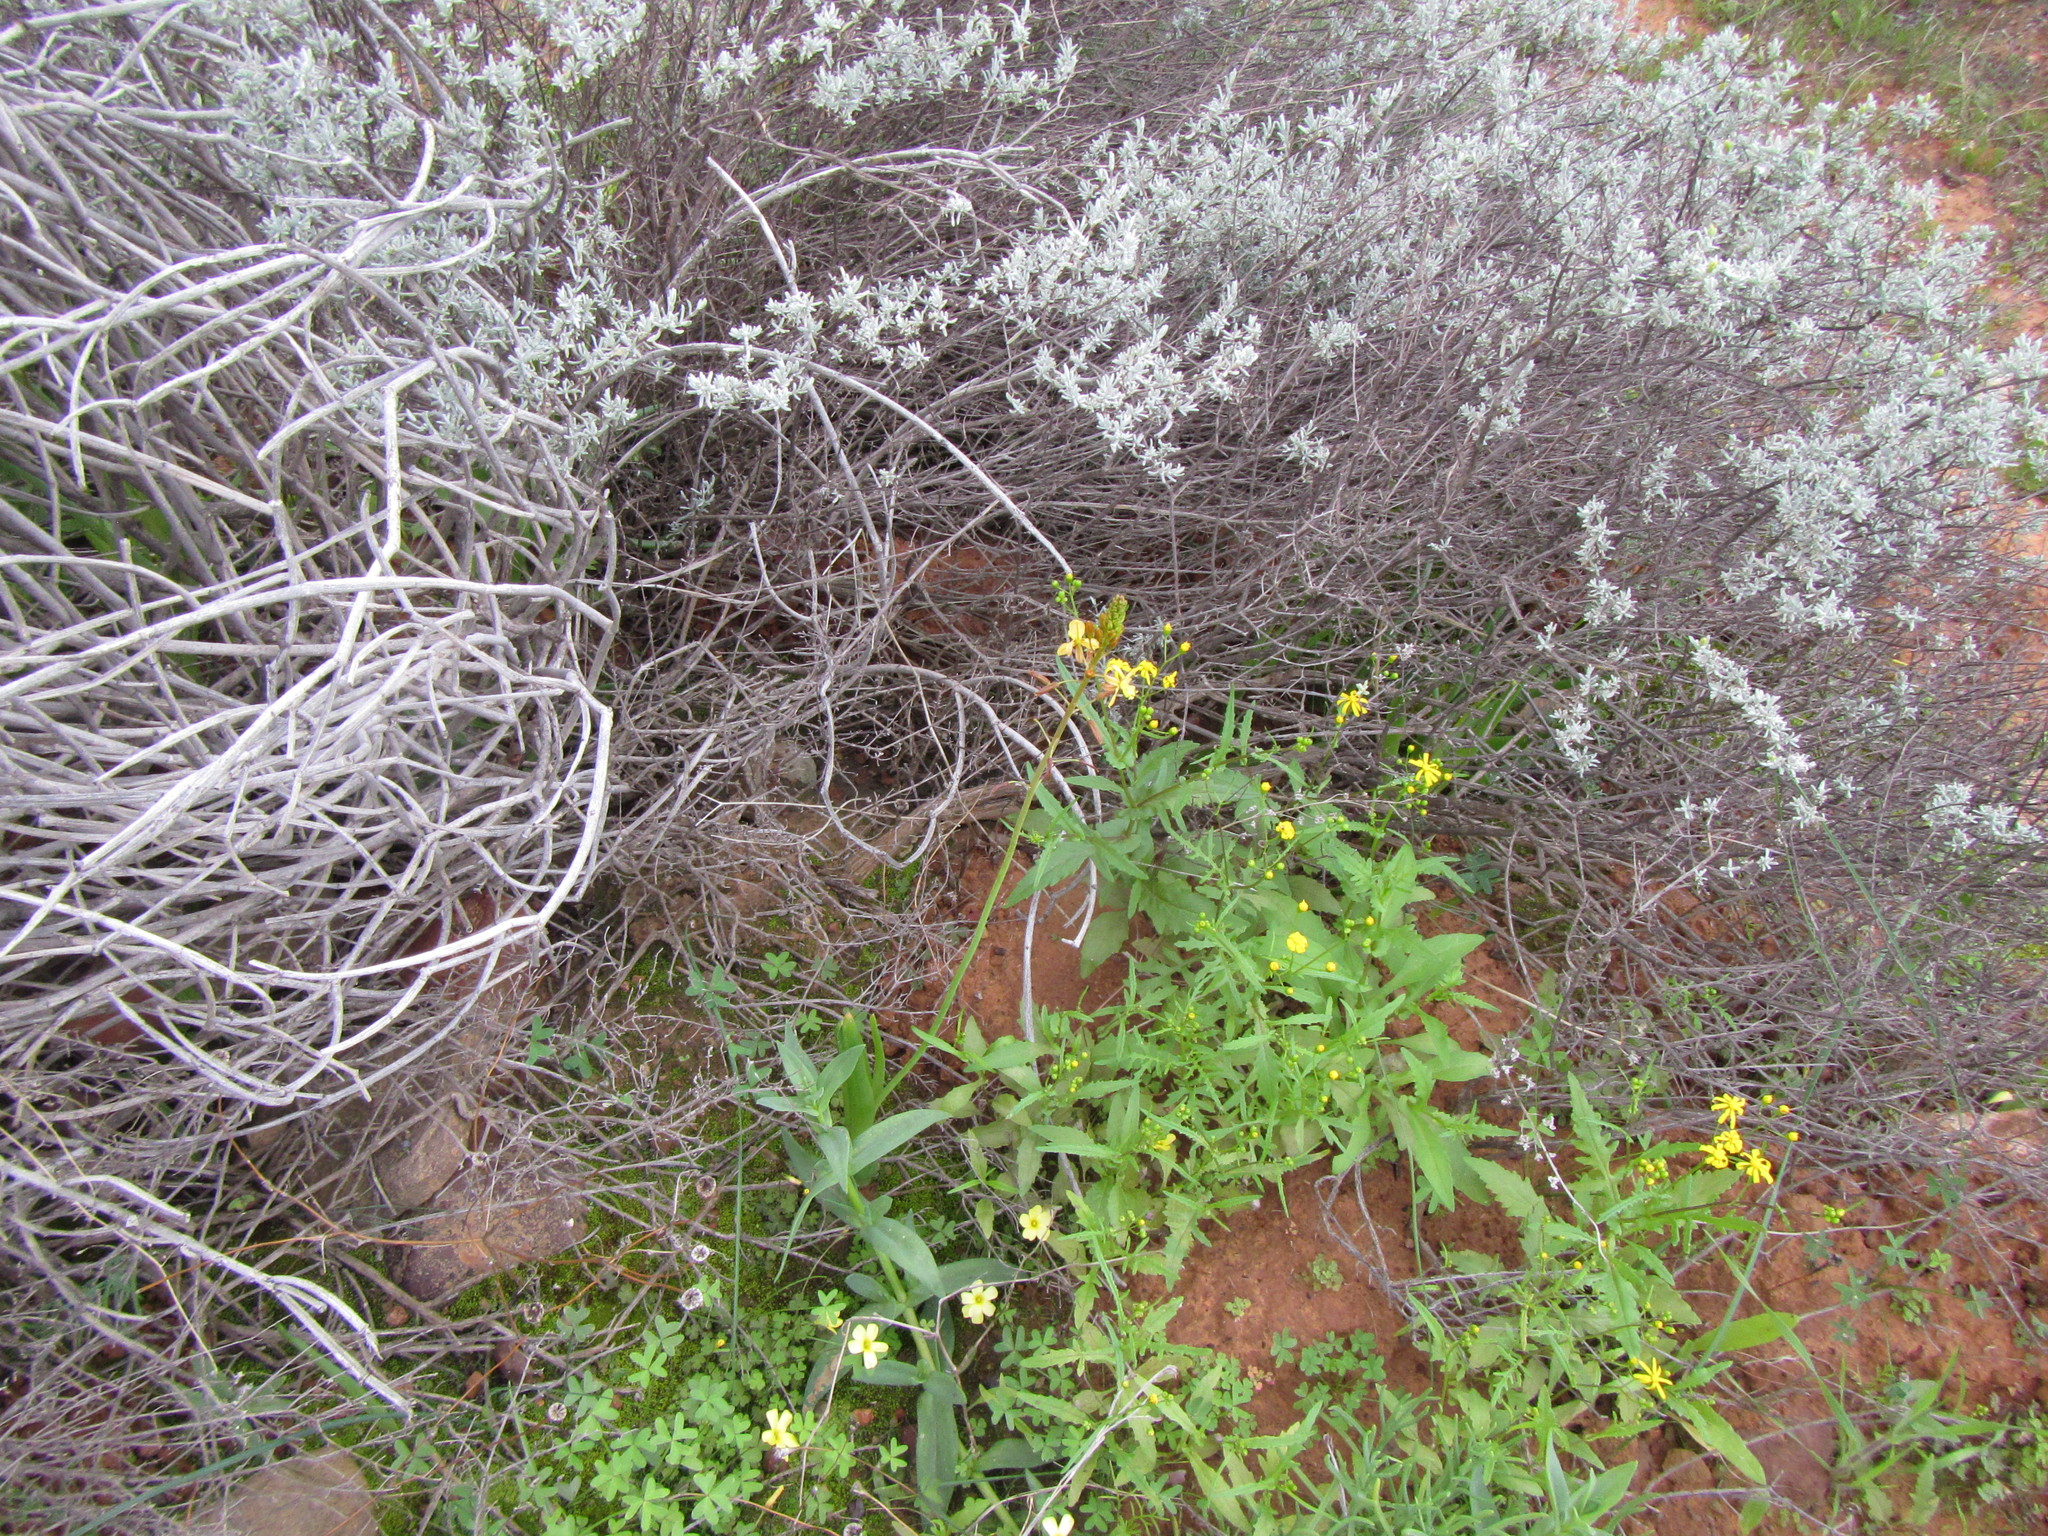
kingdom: Plantae
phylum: Tracheophyta
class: Magnoliopsida
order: Asterales
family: Asteraceae
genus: Senecio
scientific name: Senecio abruptus
